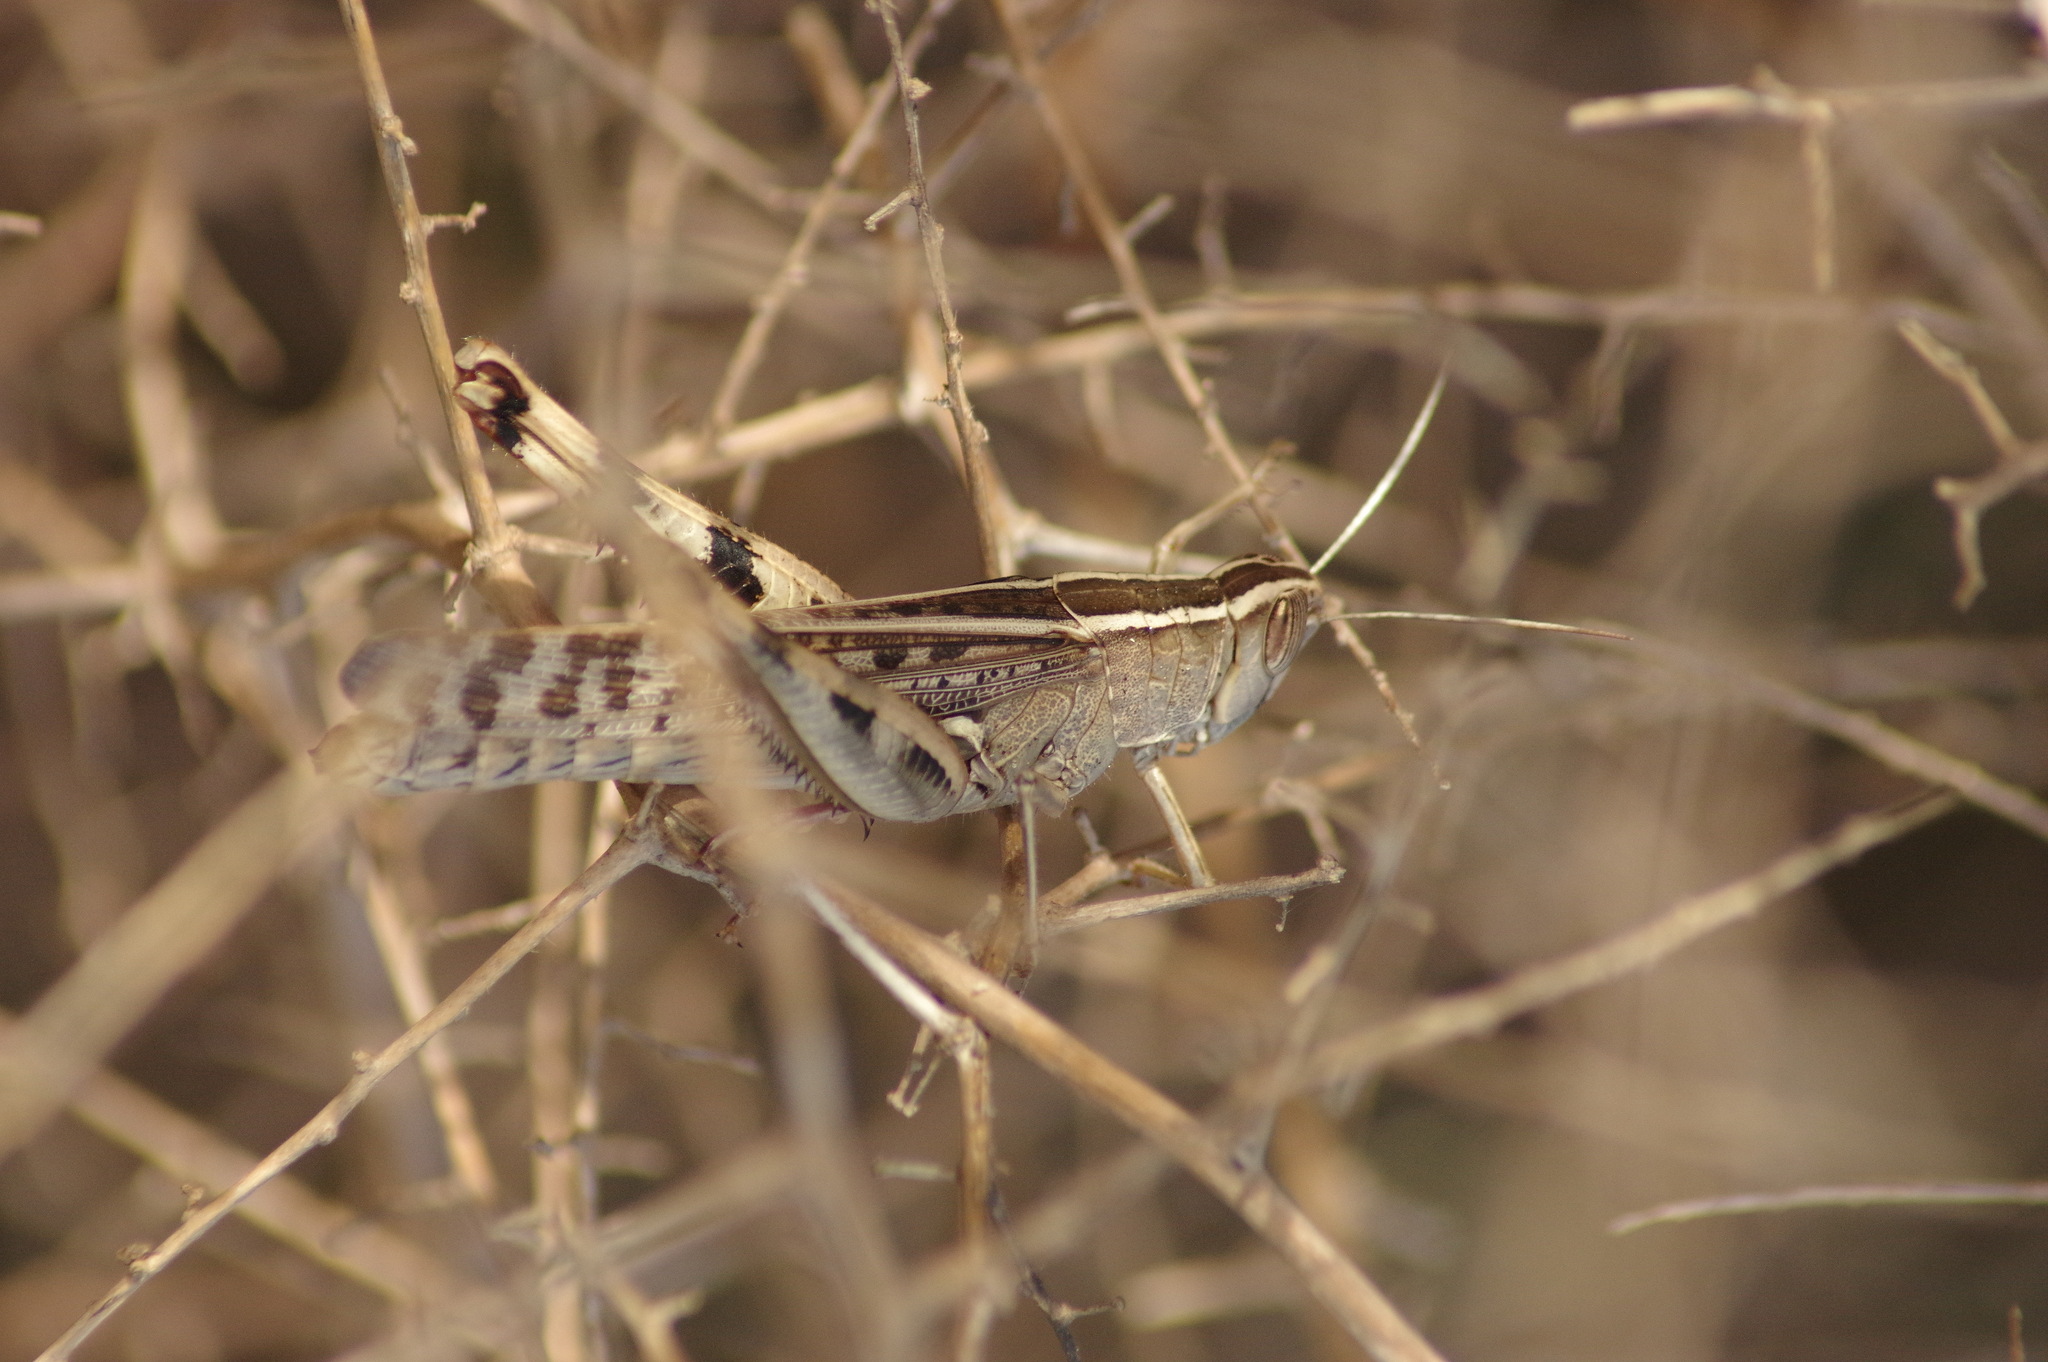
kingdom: Animalia
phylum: Arthropoda
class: Insecta
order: Orthoptera
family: Acrididae
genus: Heteracris
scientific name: Heteracris littoralis
